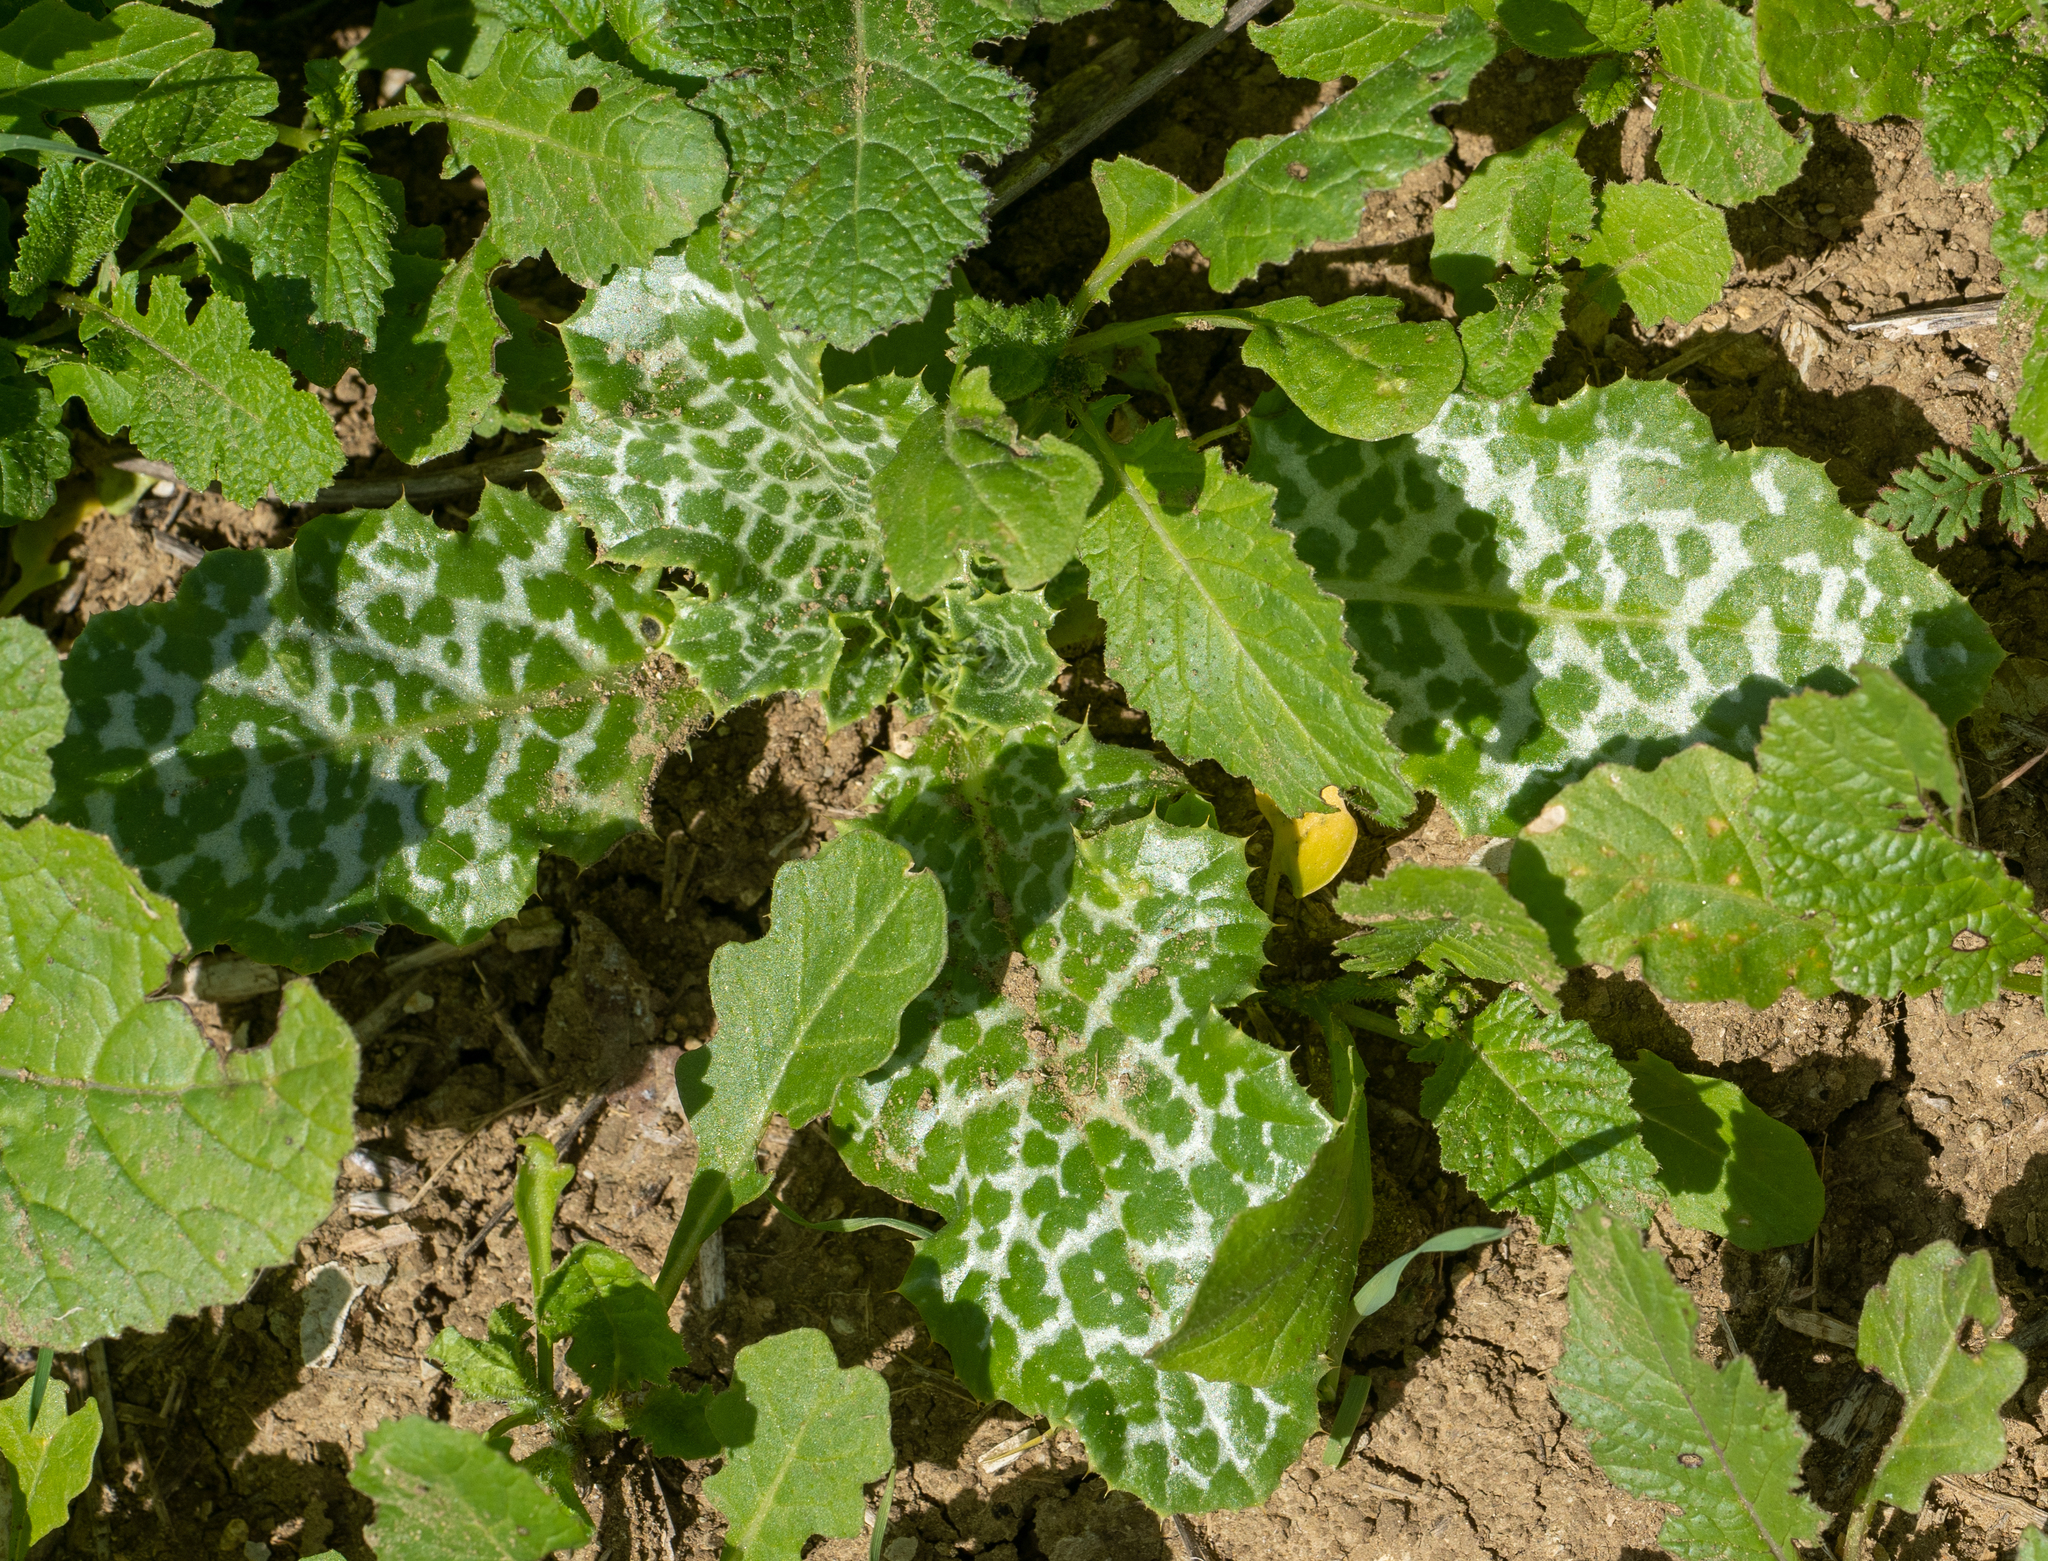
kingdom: Plantae
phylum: Tracheophyta
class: Magnoliopsida
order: Asterales
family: Asteraceae
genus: Silybum
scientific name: Silybum marianum
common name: Milk thistle
